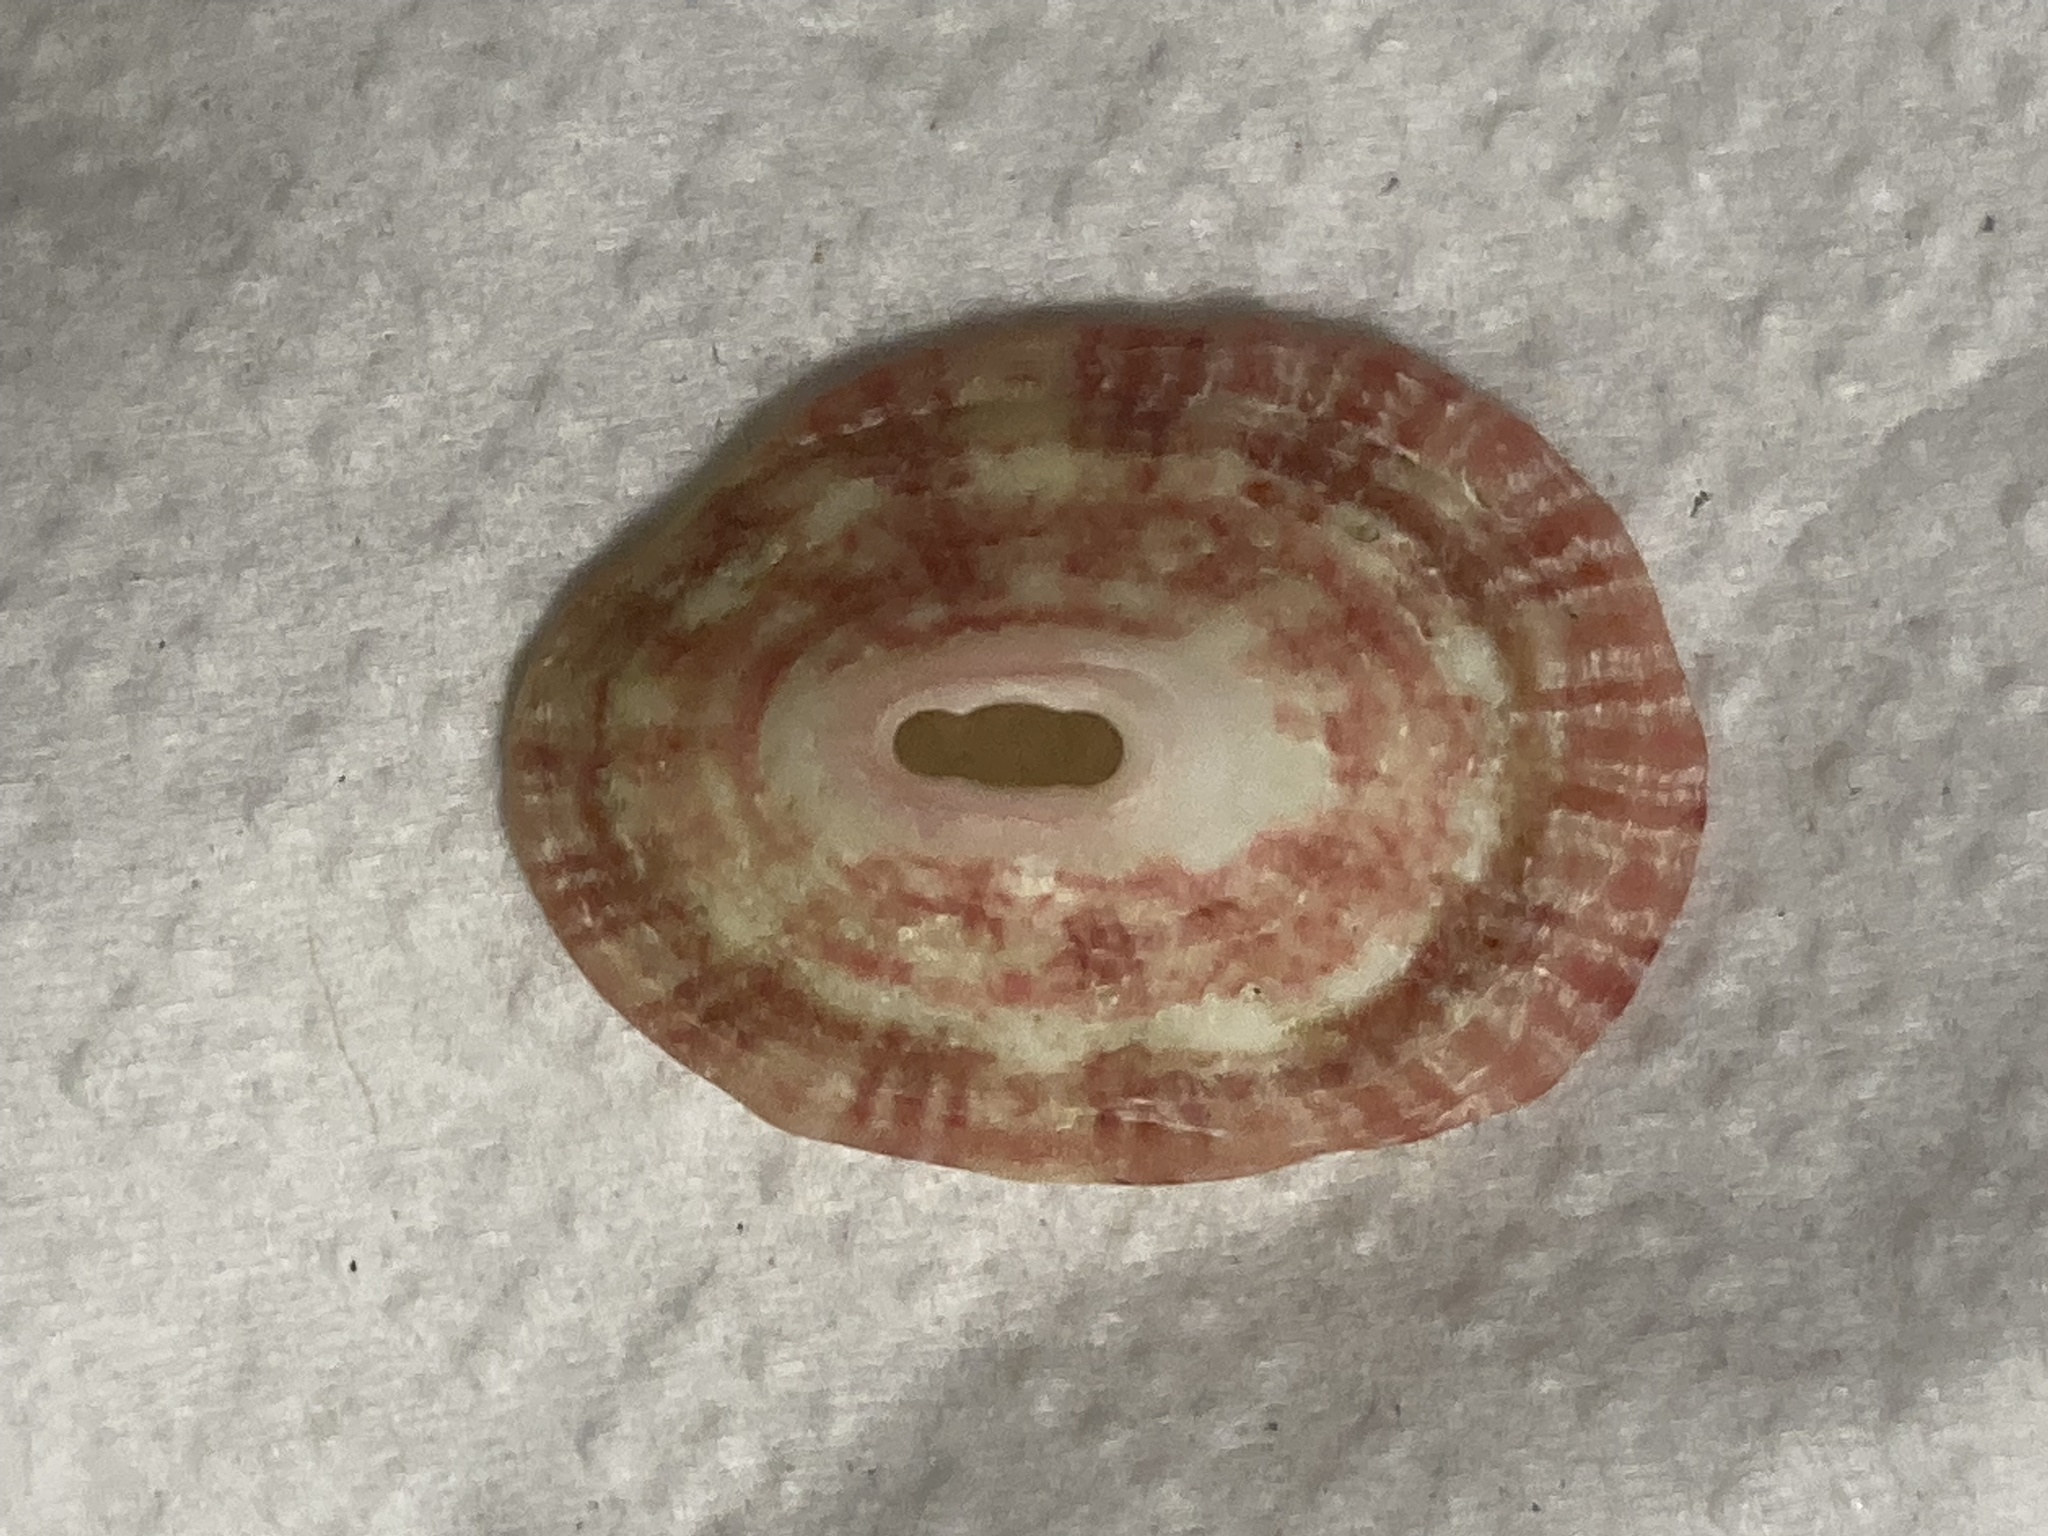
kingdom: Animalia
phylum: Mollusca
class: Gastropoda
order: Lepetellida
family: Fissurellidae
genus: Fissurella
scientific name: Fissurella volcano
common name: Volcano keyhole limpet
